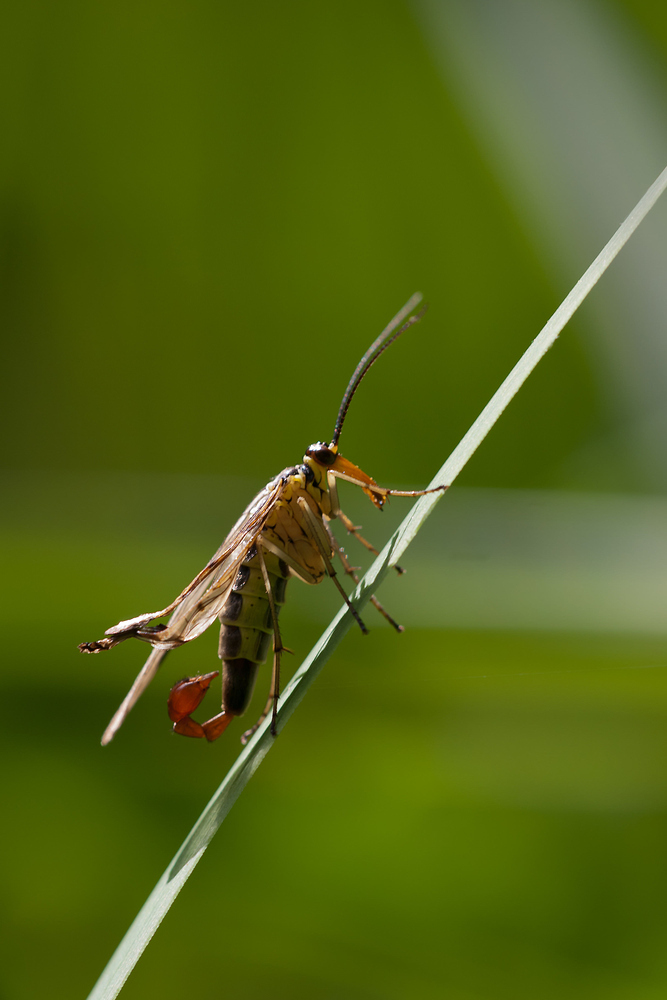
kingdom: Animalia
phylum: Arthropoda
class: Insecta
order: Mecoptera
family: Panorpidae
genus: Panorpa
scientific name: Panorpa communis
